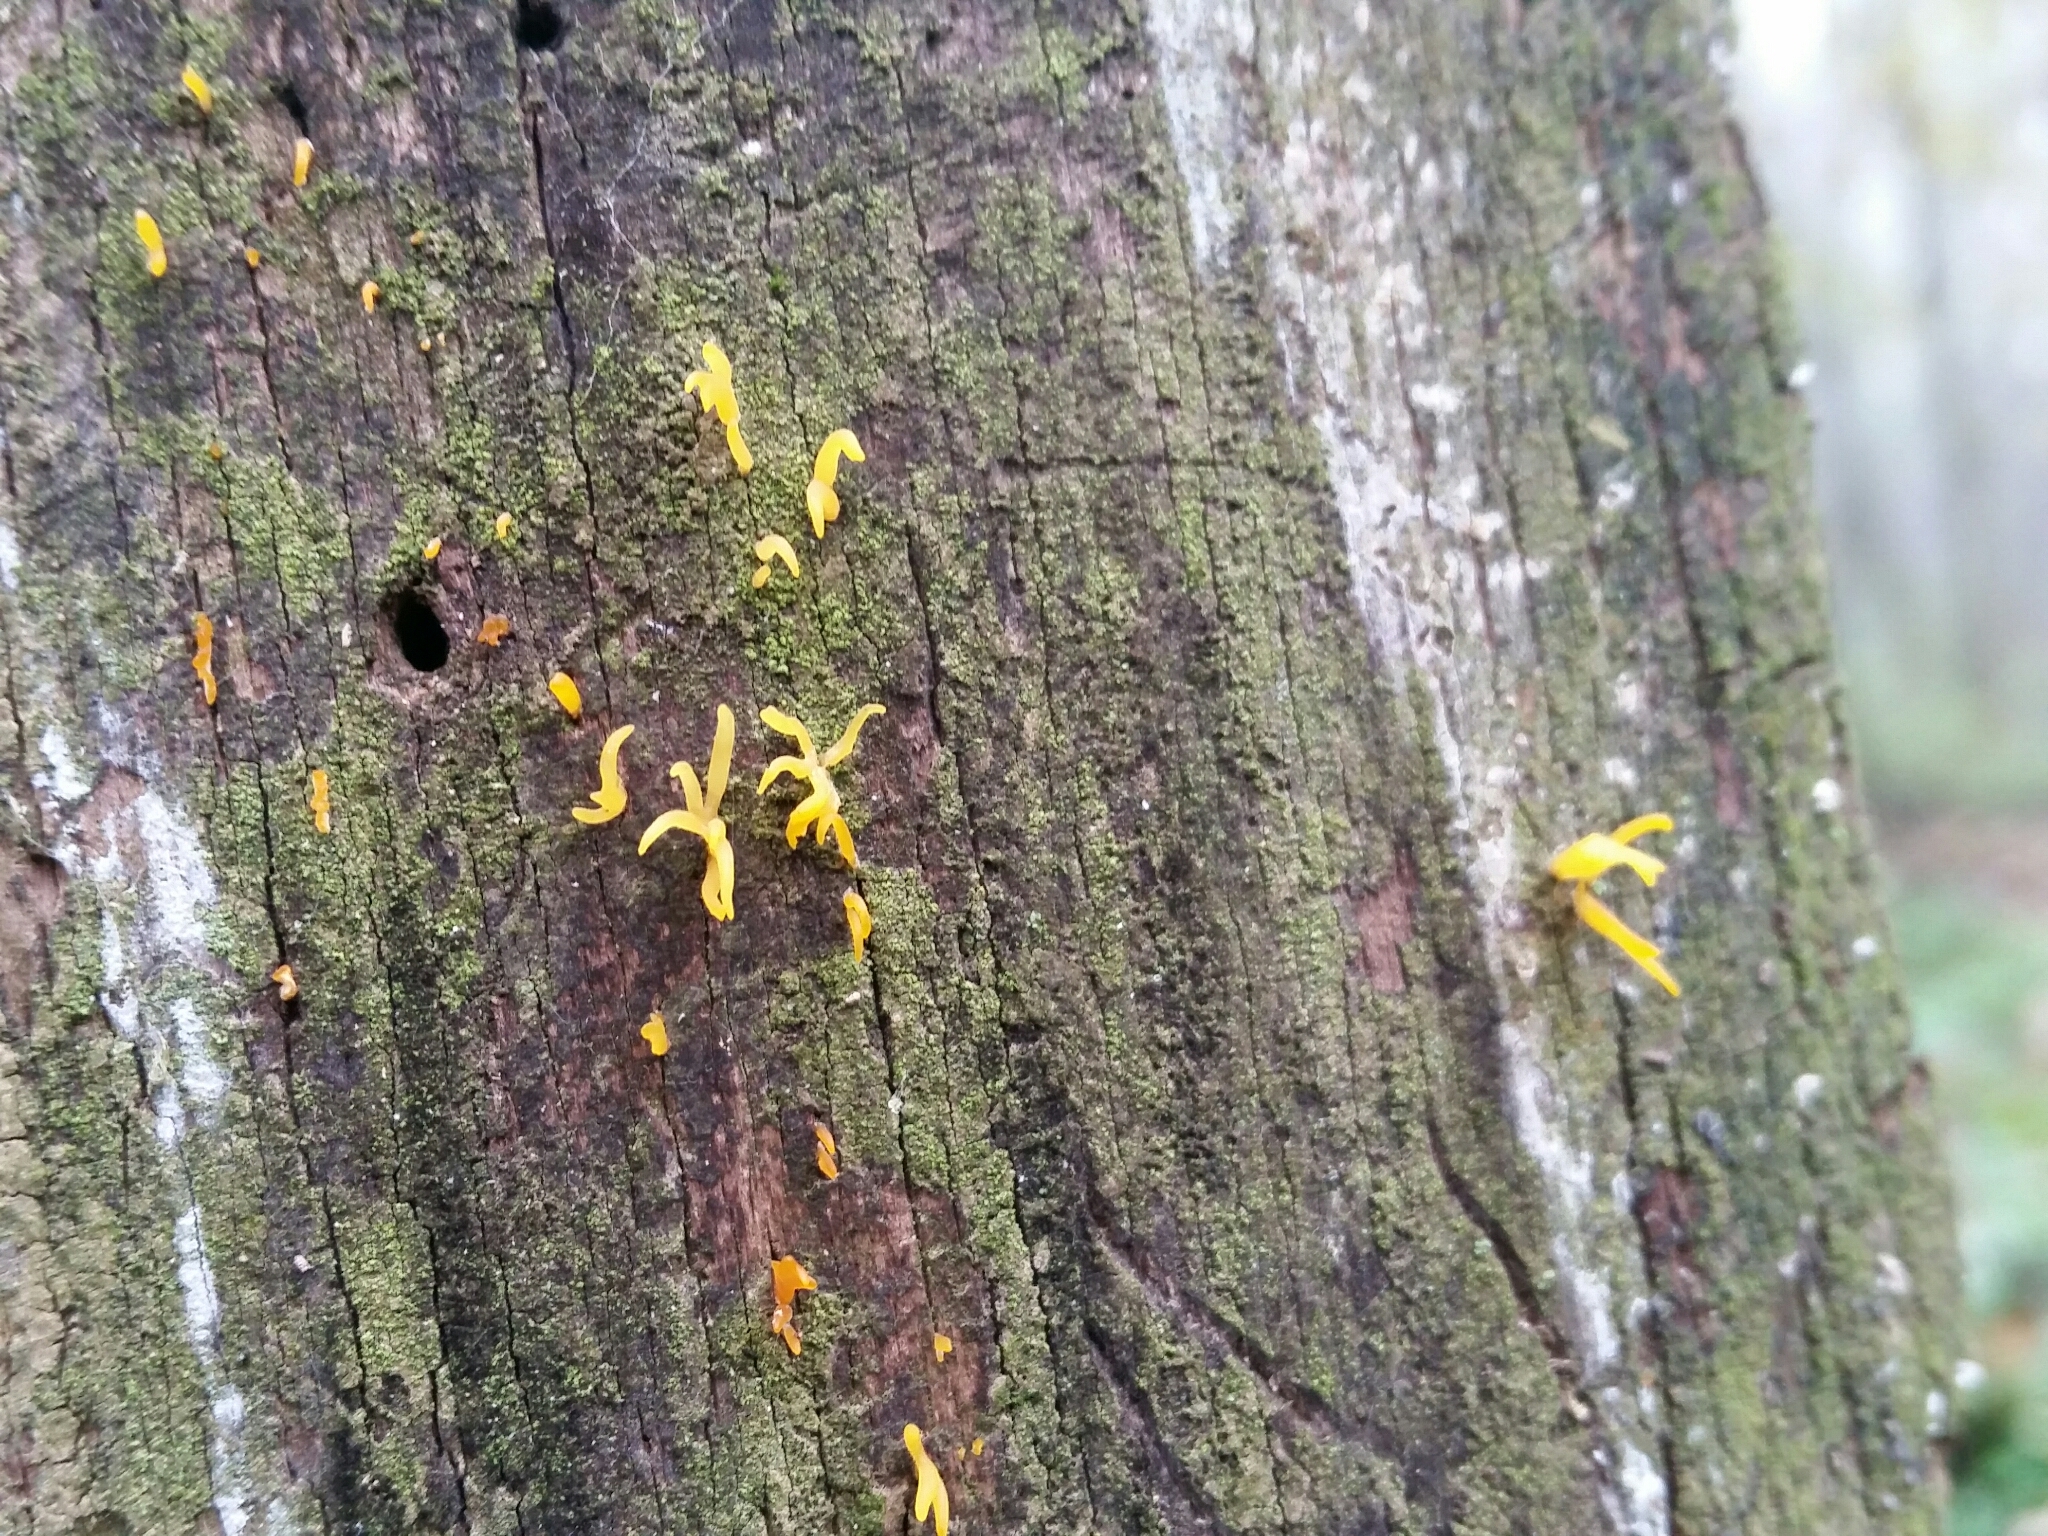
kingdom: Fungi
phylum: Basidiomycota
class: Dacrymycetes
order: Dacrymycetales
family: Dacrymycetaceae
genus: Calocera
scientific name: Calocera cornea
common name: Small stagshorn
